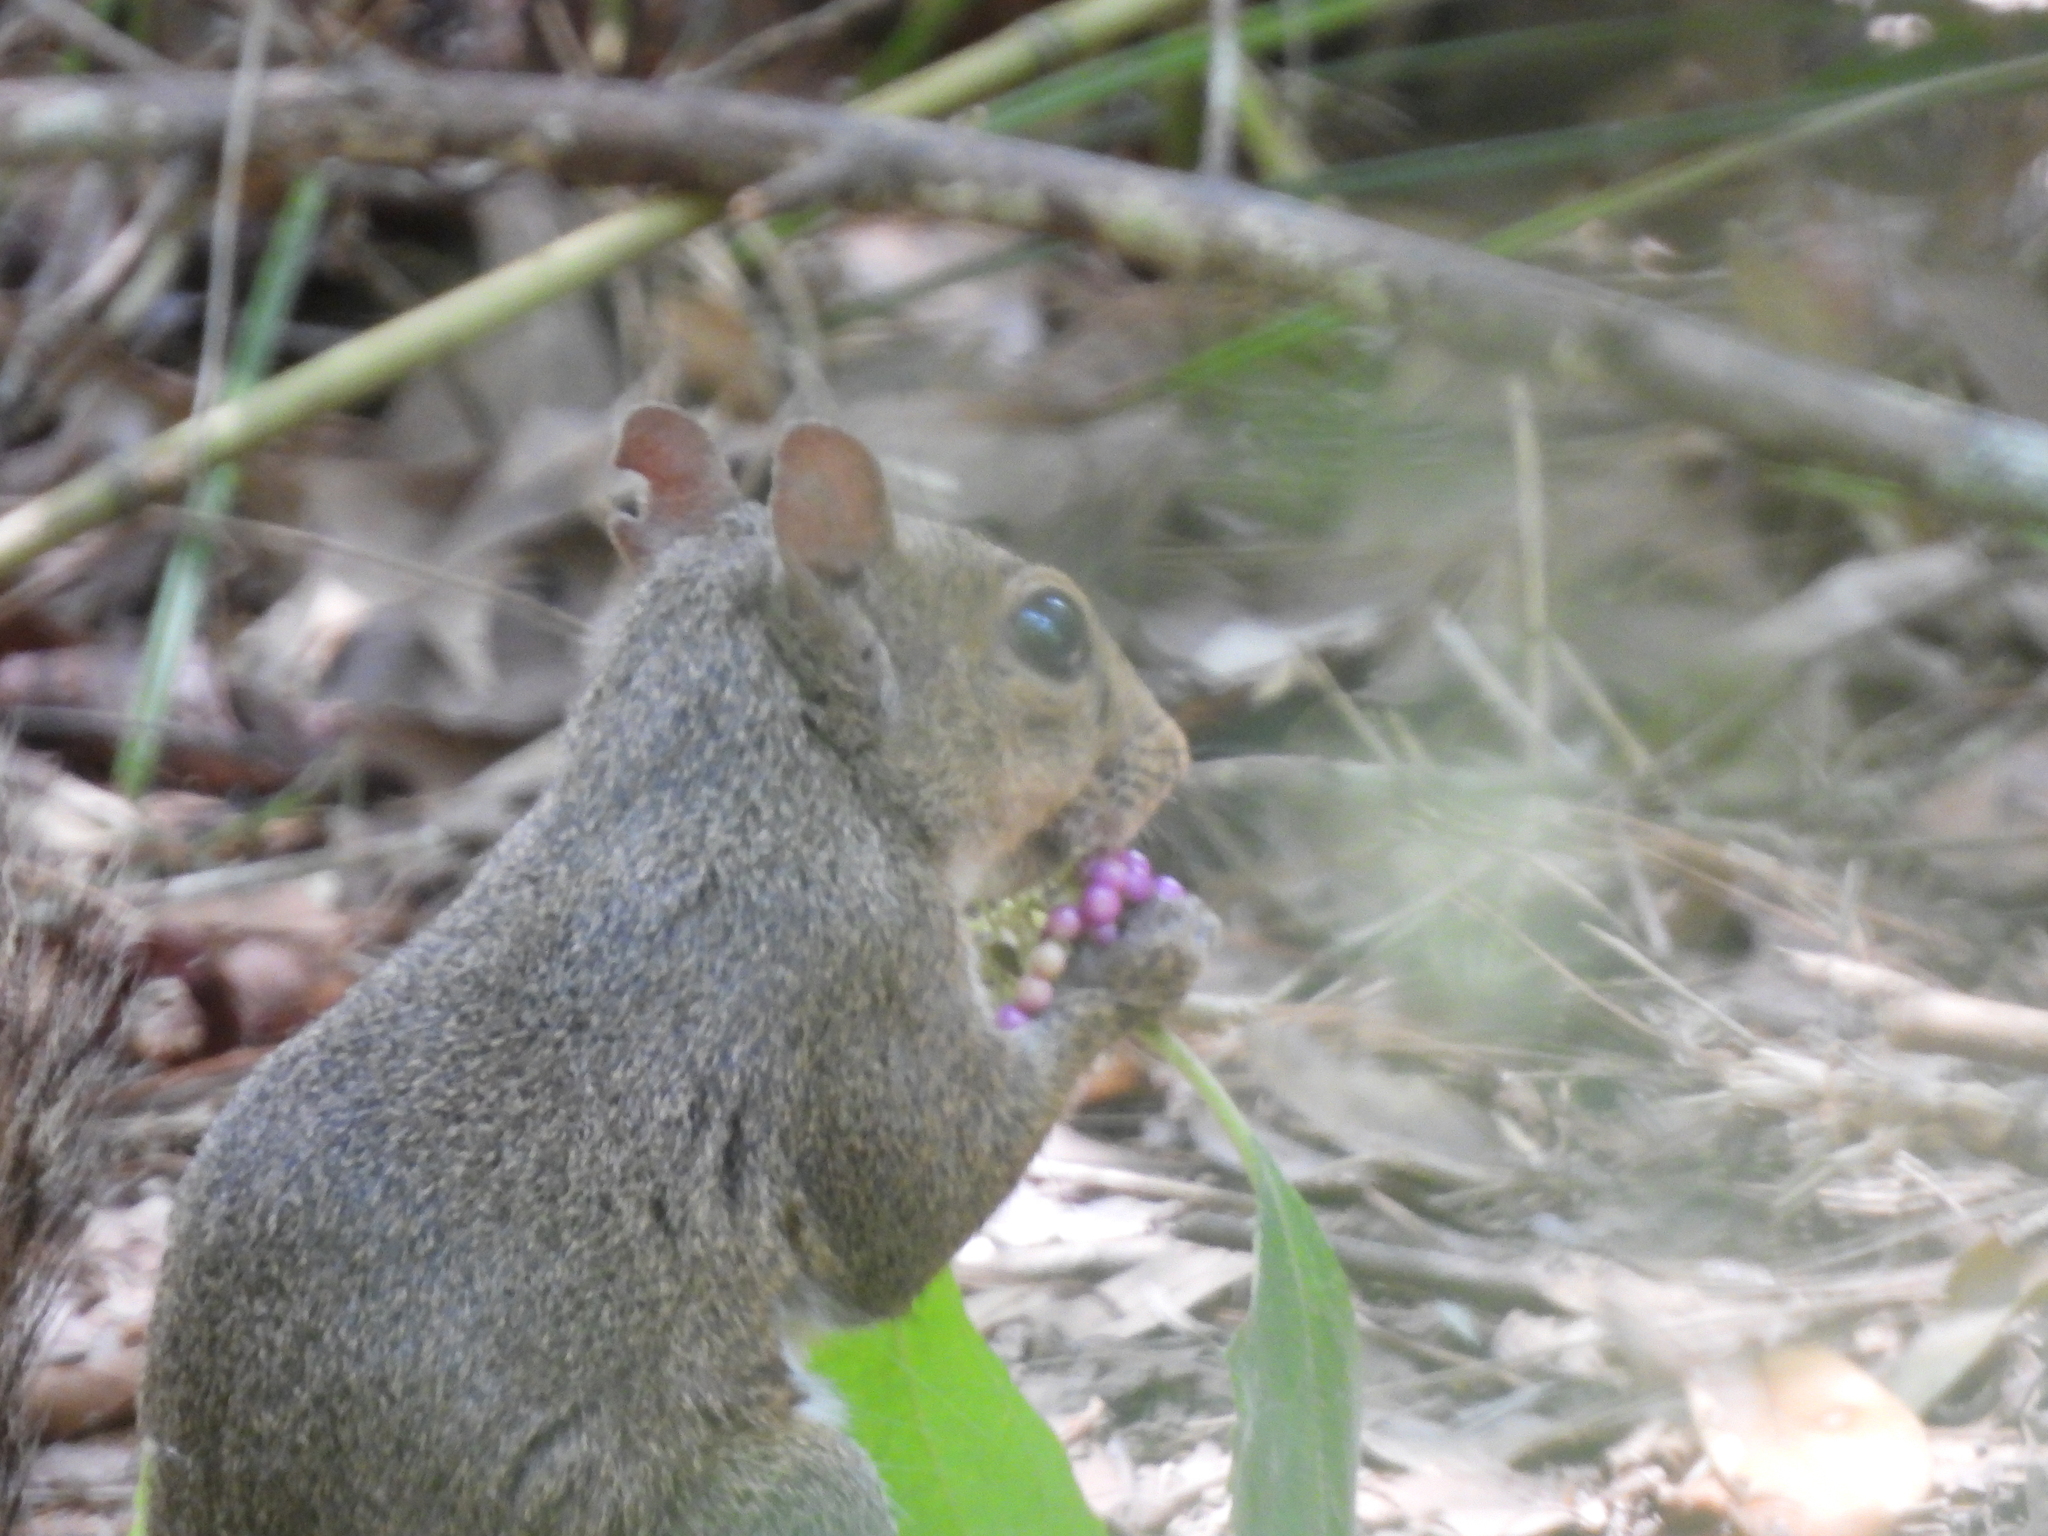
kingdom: Plantae
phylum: Tracheophyta
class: Magnoliopsida
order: Lamiales
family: Lamiaceae
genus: Callicarpa
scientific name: Callicarpa americana
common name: American beautyberry
